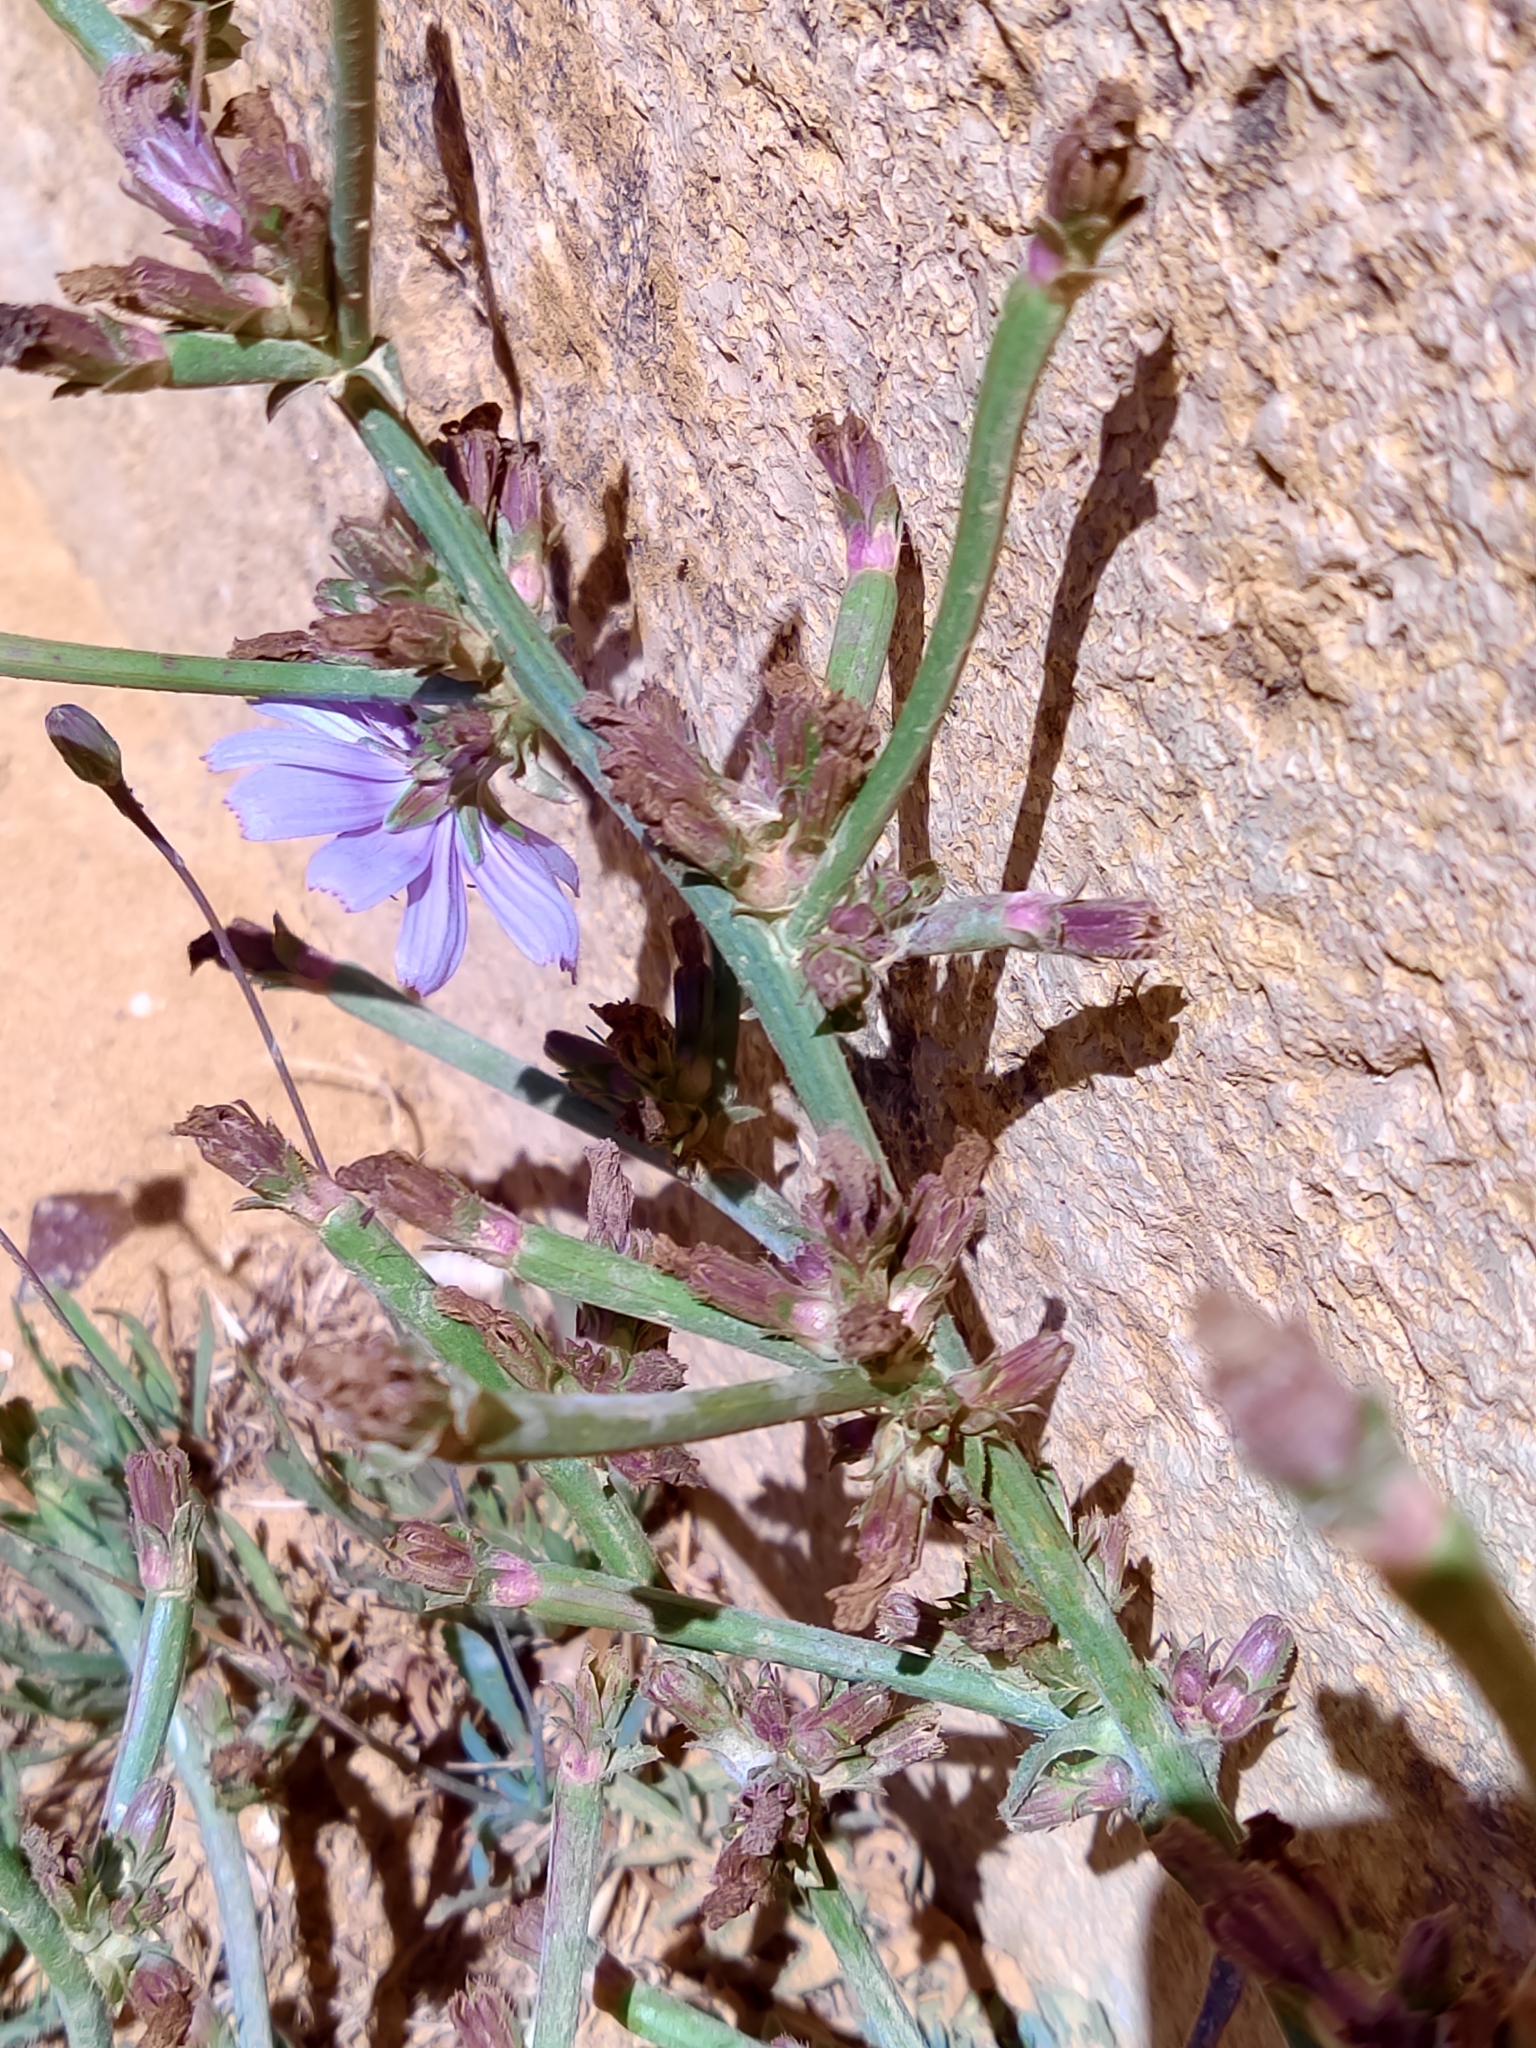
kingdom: Plantae
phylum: Tracheophyta
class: Magnoliopsida
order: Asterales
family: Asteraceae
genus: Cichorium
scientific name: Cichorium intybus
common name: Chicory
